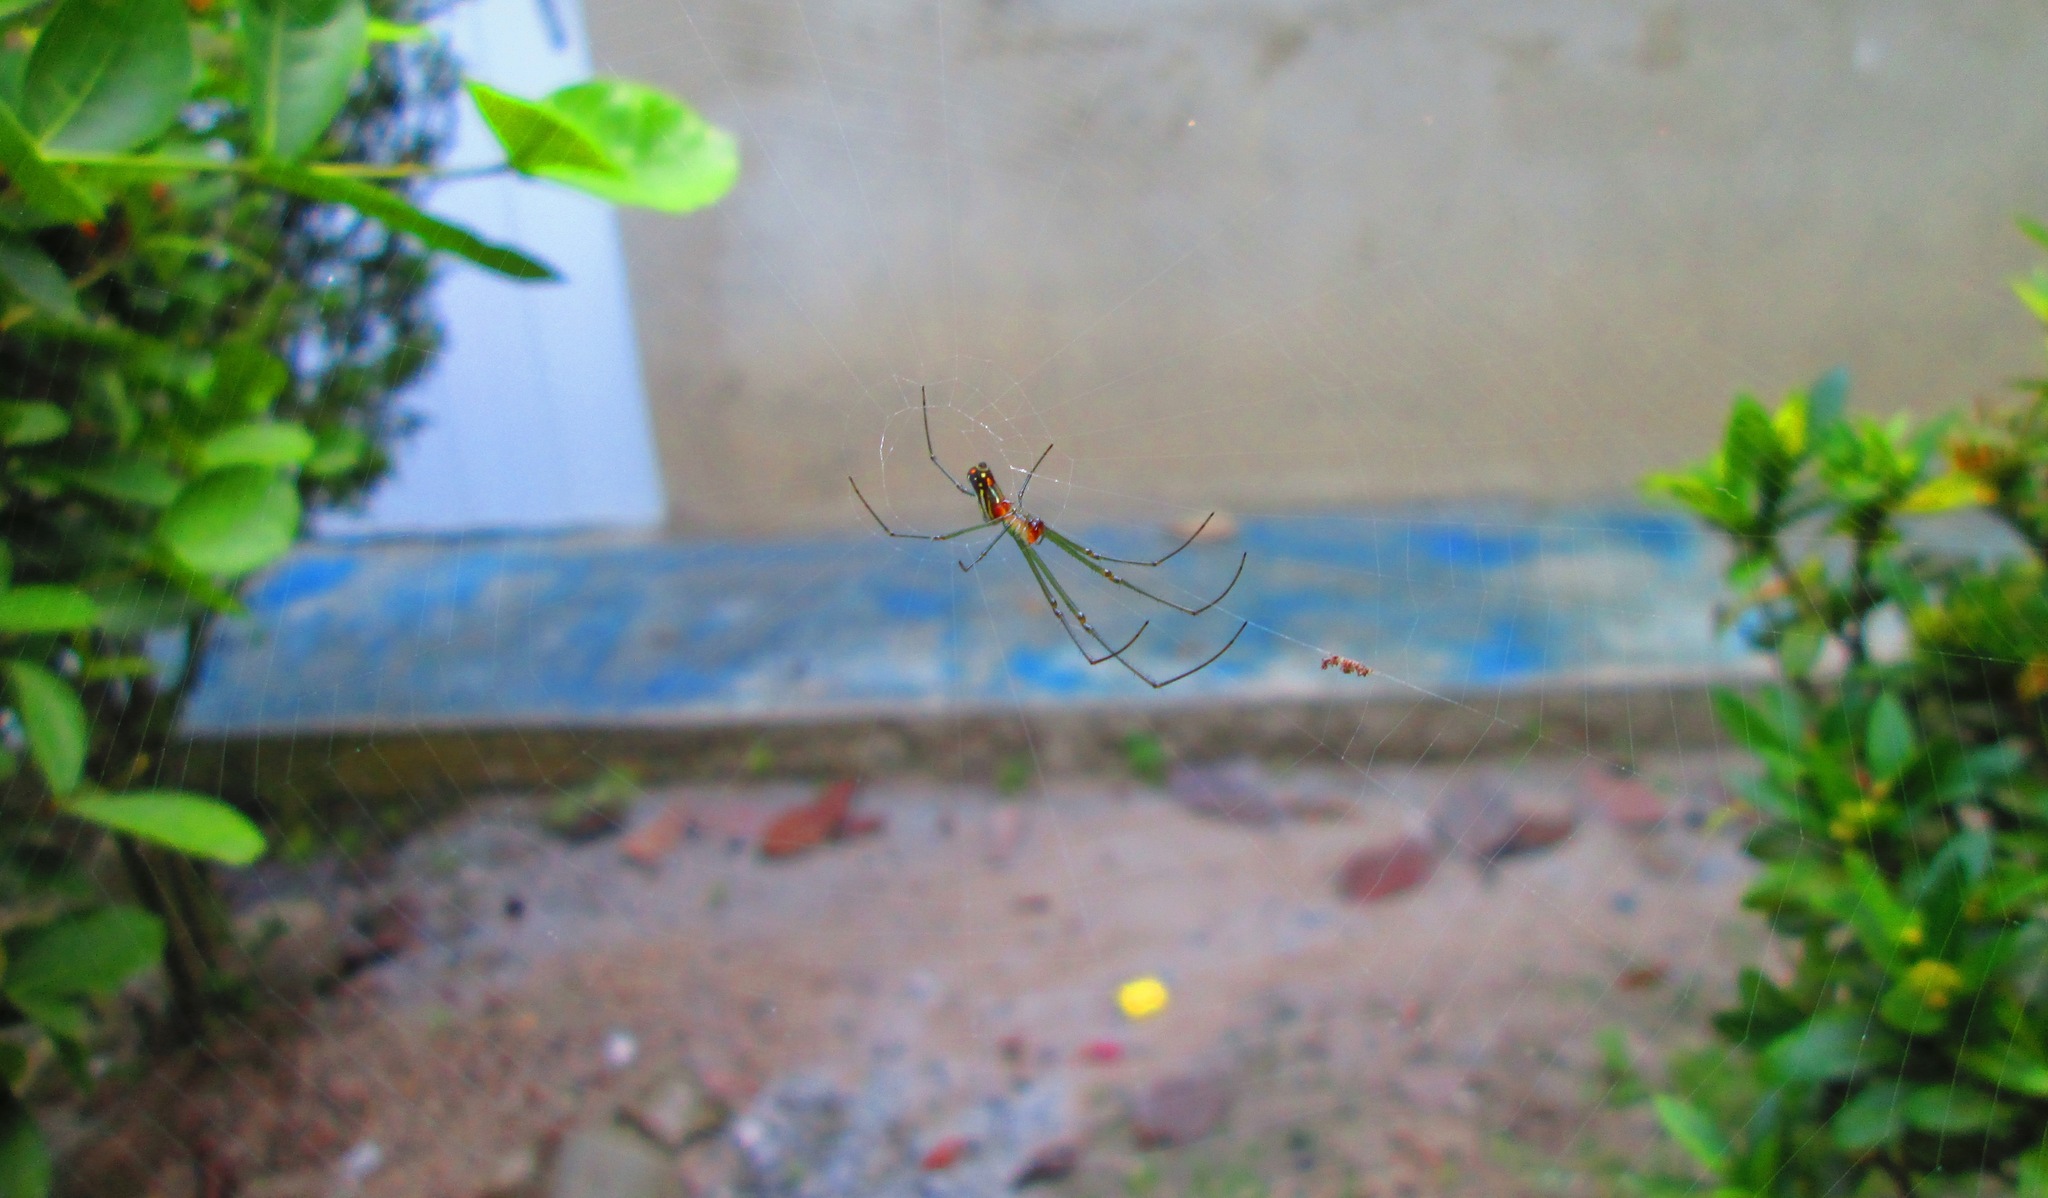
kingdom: Animalia
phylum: Arthropoda
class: Arachnida
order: Araneae
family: Tetragnathidae
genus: Leucauge
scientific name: Leucauge argyra
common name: Longjawed orb weavers
